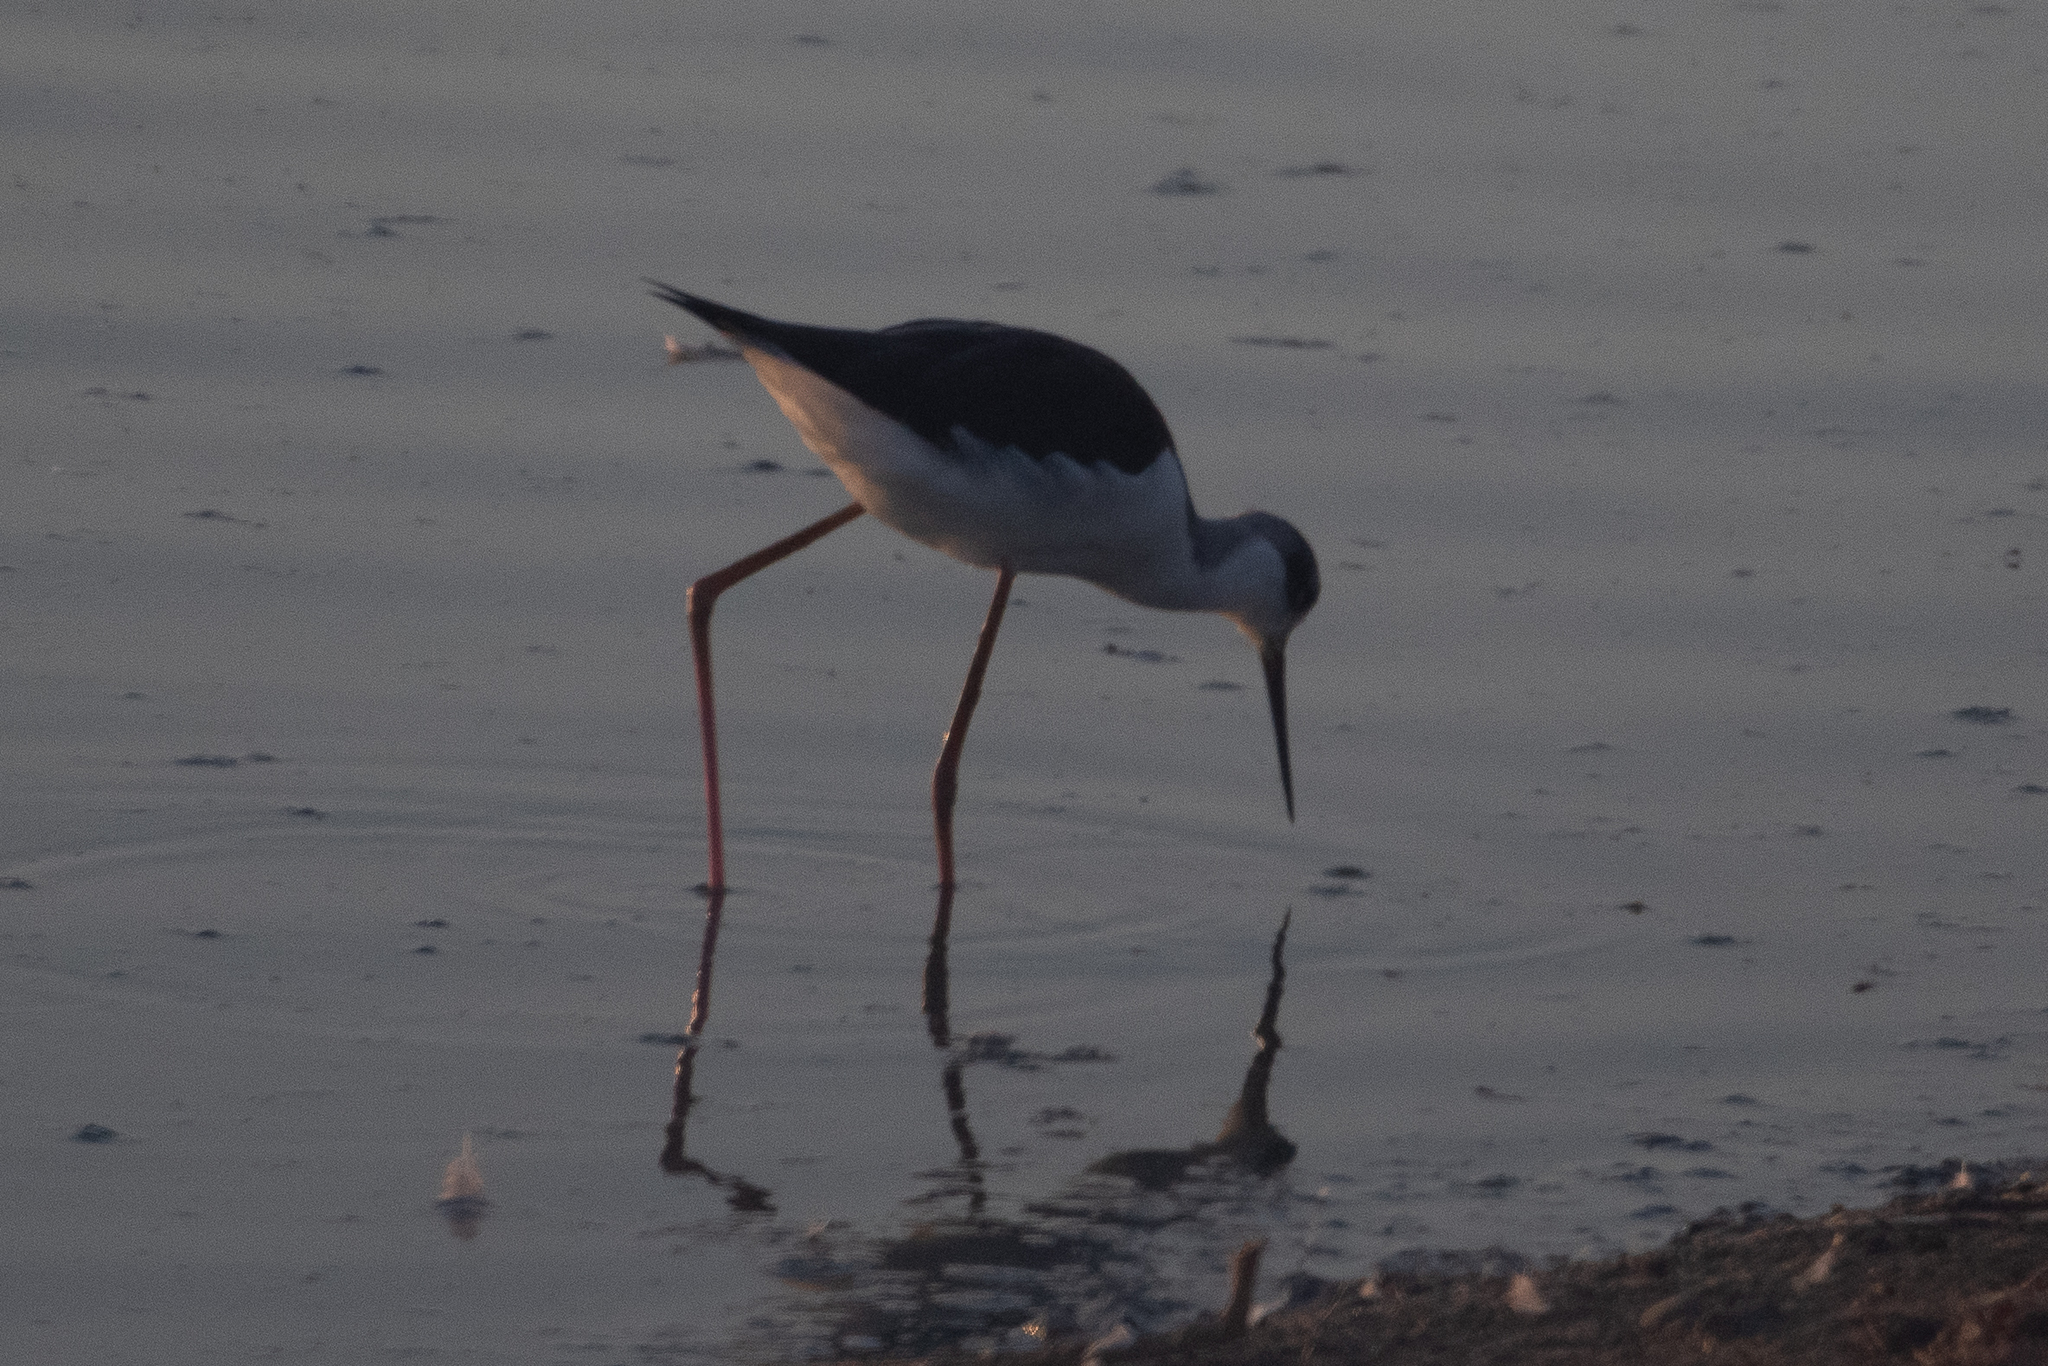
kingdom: Animalia
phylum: Chordata
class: Aves
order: Charadriiformes
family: Recurvirostridae
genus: Himantopus
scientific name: Himantopus mexicanus
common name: Black-necked stilt
